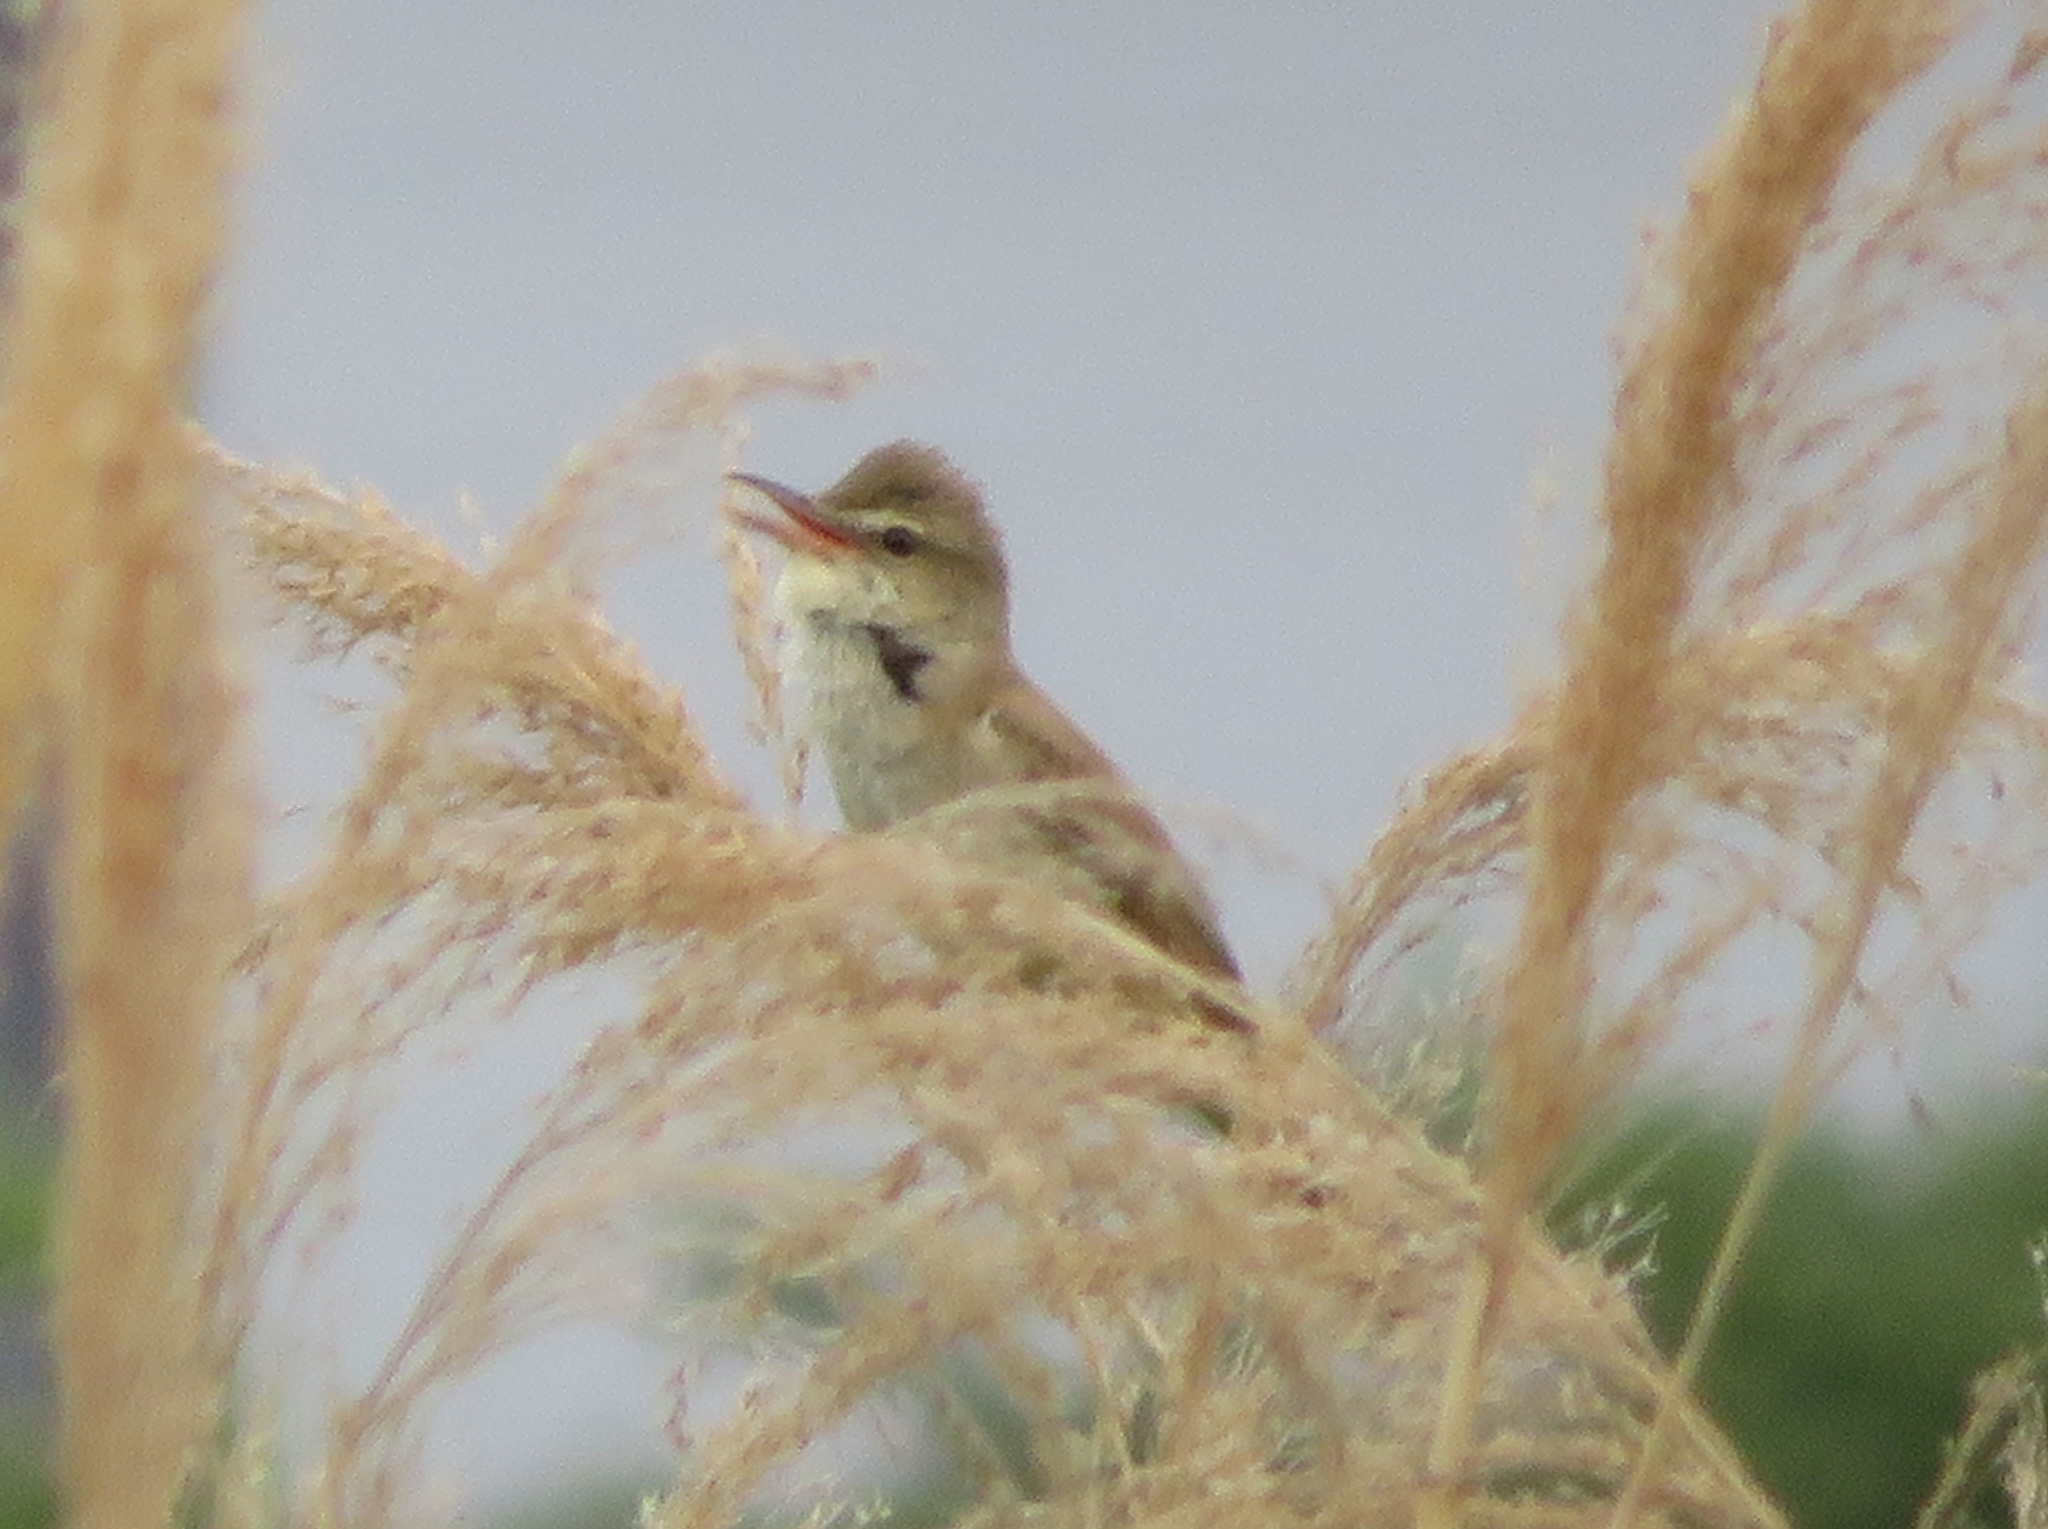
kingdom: Animalia
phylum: Chordata
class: Aves
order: Passeriformes
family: Acrocephalidae
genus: Acrocephalus
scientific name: Acrocephalus orientalis
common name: Oriental reed warbler
